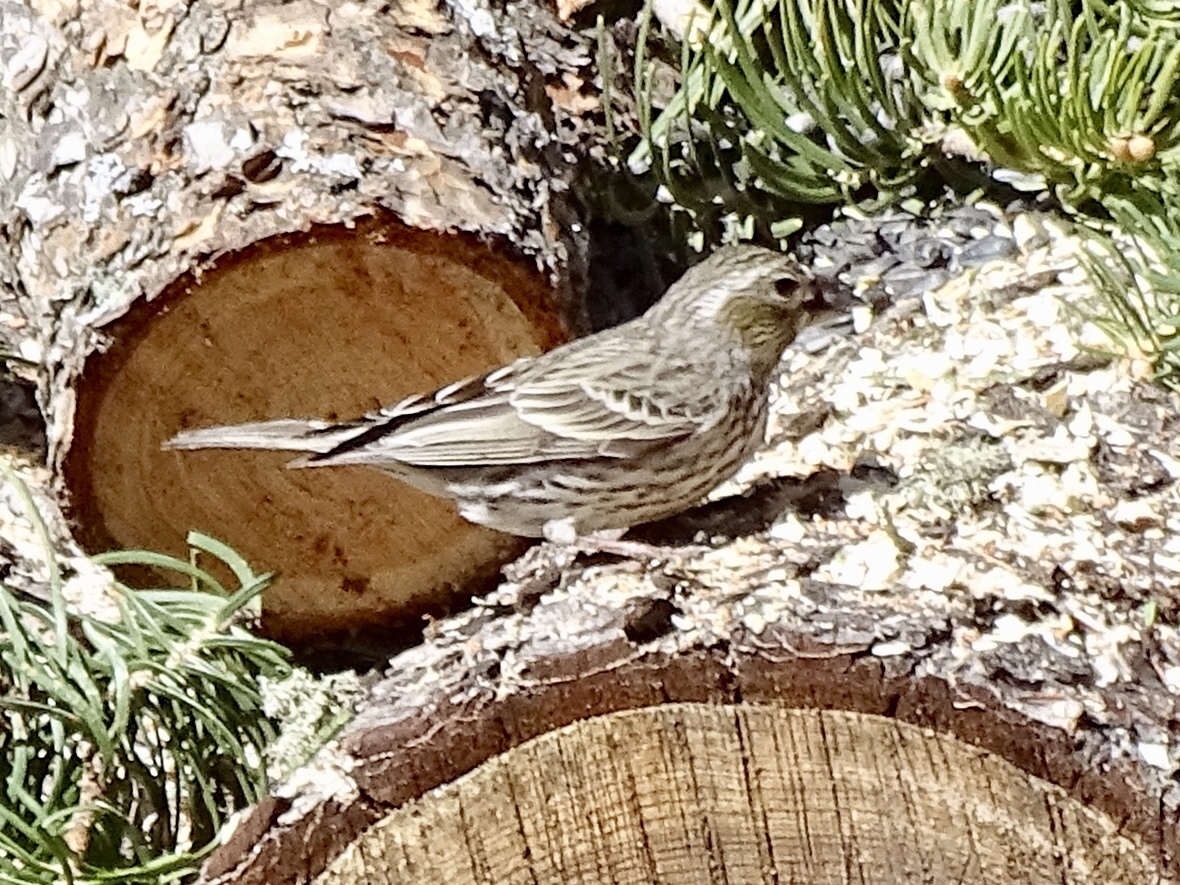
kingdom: Animalia
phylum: Chordata
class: Aves
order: Passeriformes
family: Fringillidae
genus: Haemorhous
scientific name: Haemorhous cassinii
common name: Cassin's finch
